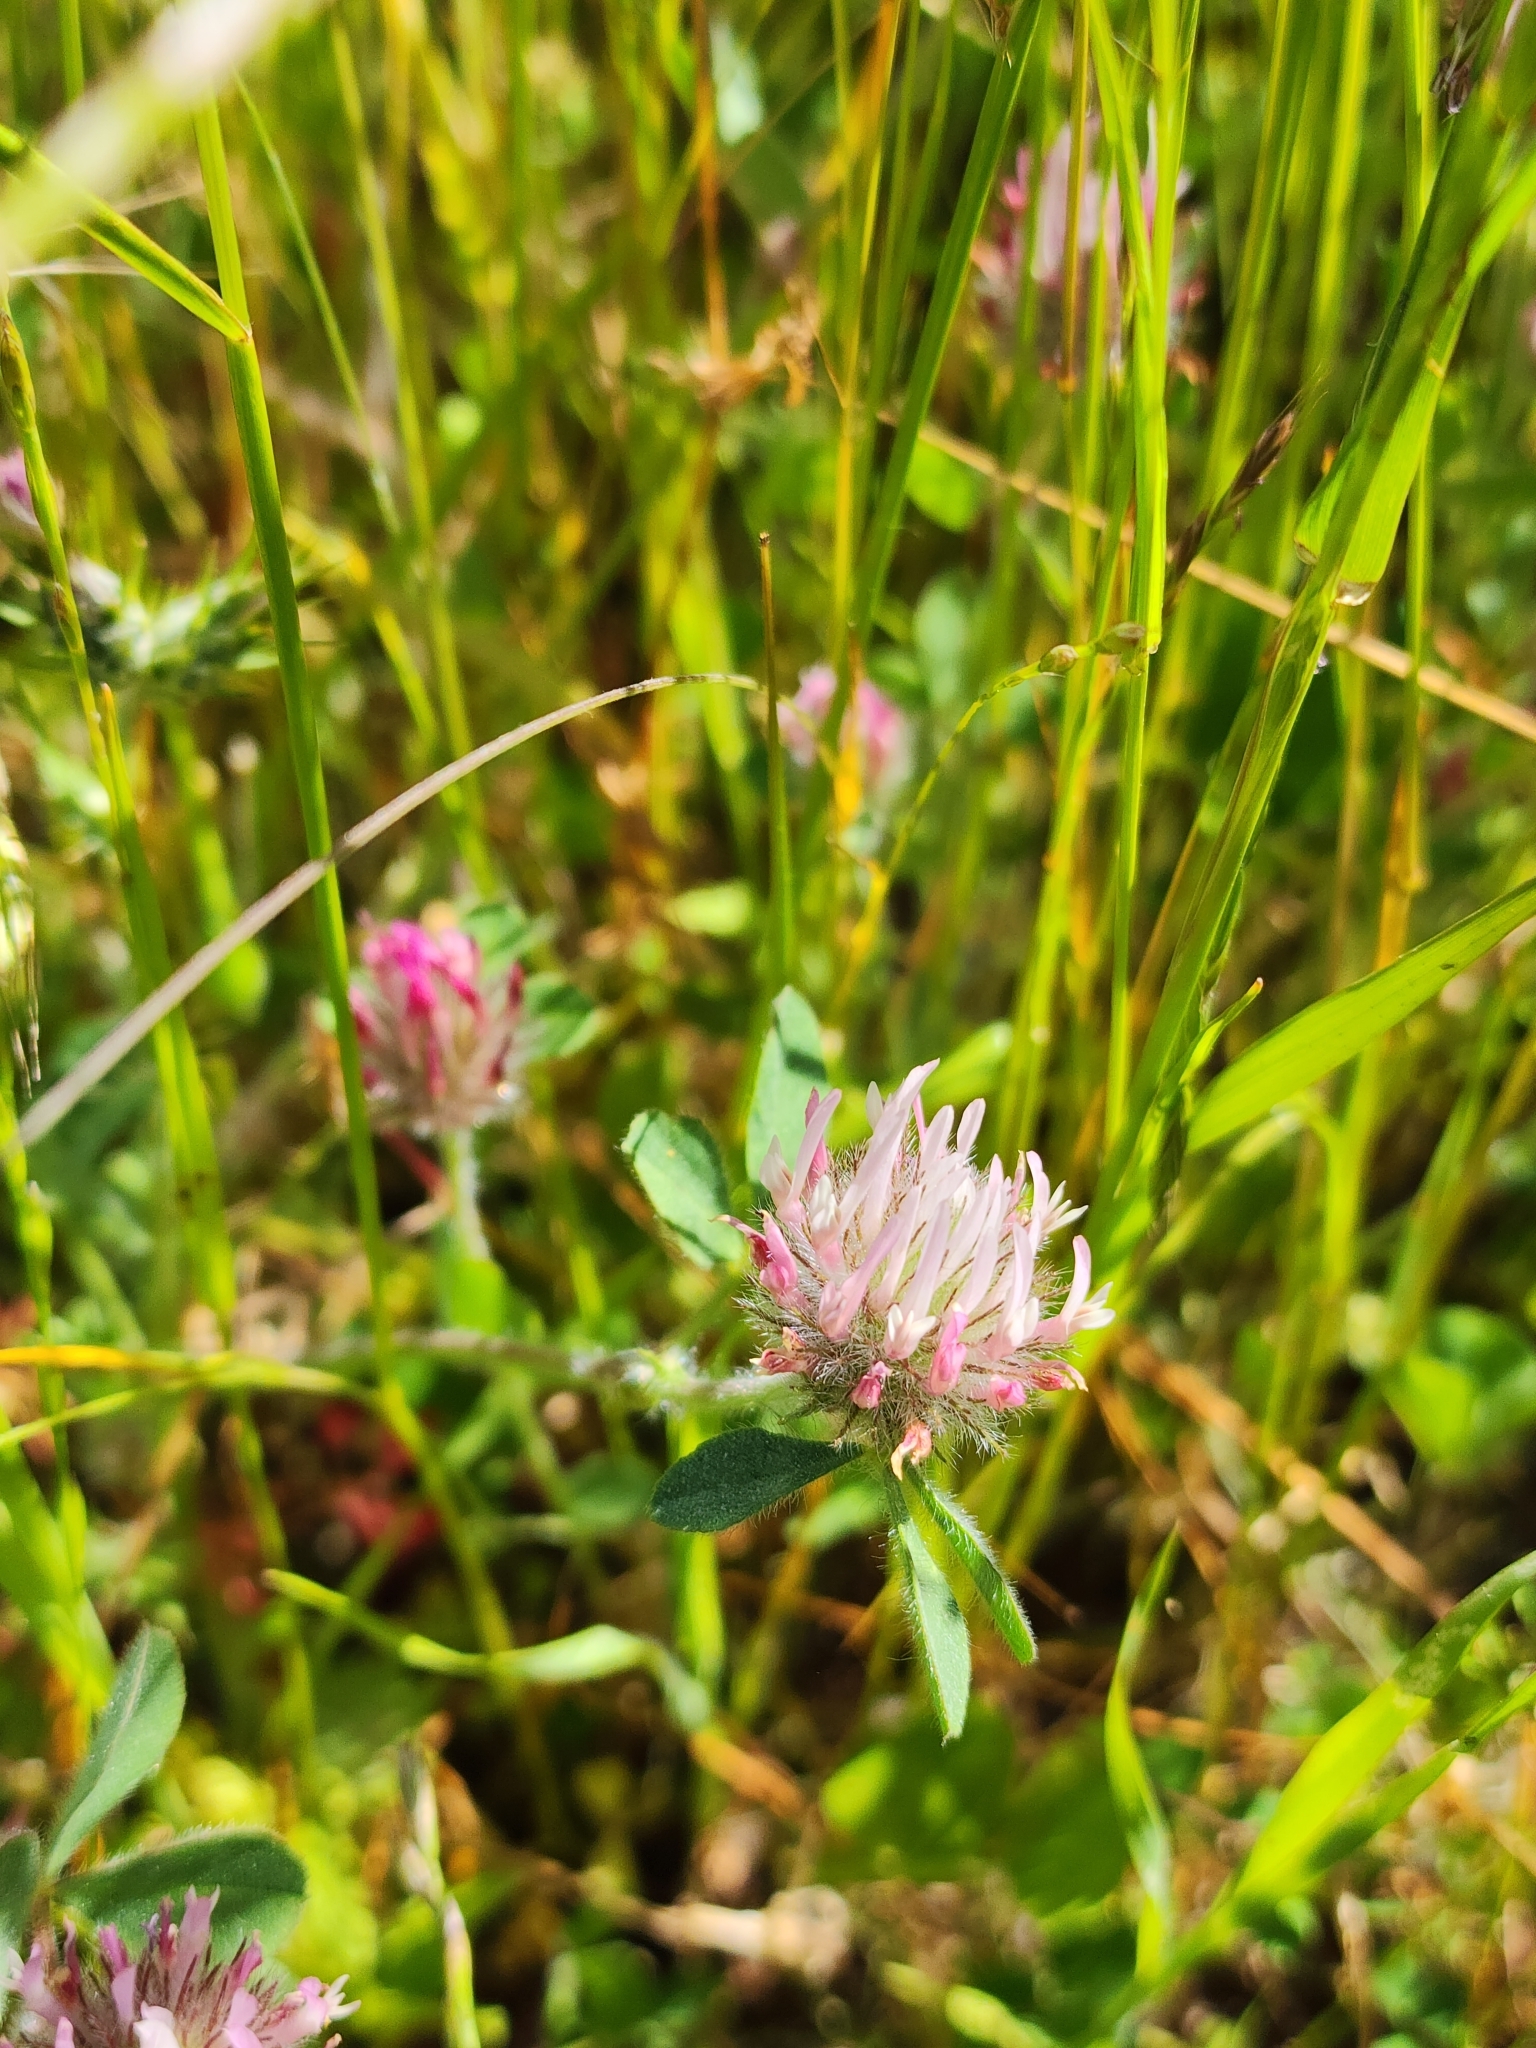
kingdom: Plantae
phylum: Tracheophyta
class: Magnoliopsida
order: Fabales
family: Fabaceae
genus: Trifolium
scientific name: Trifolium hirtum
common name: Rose clover
